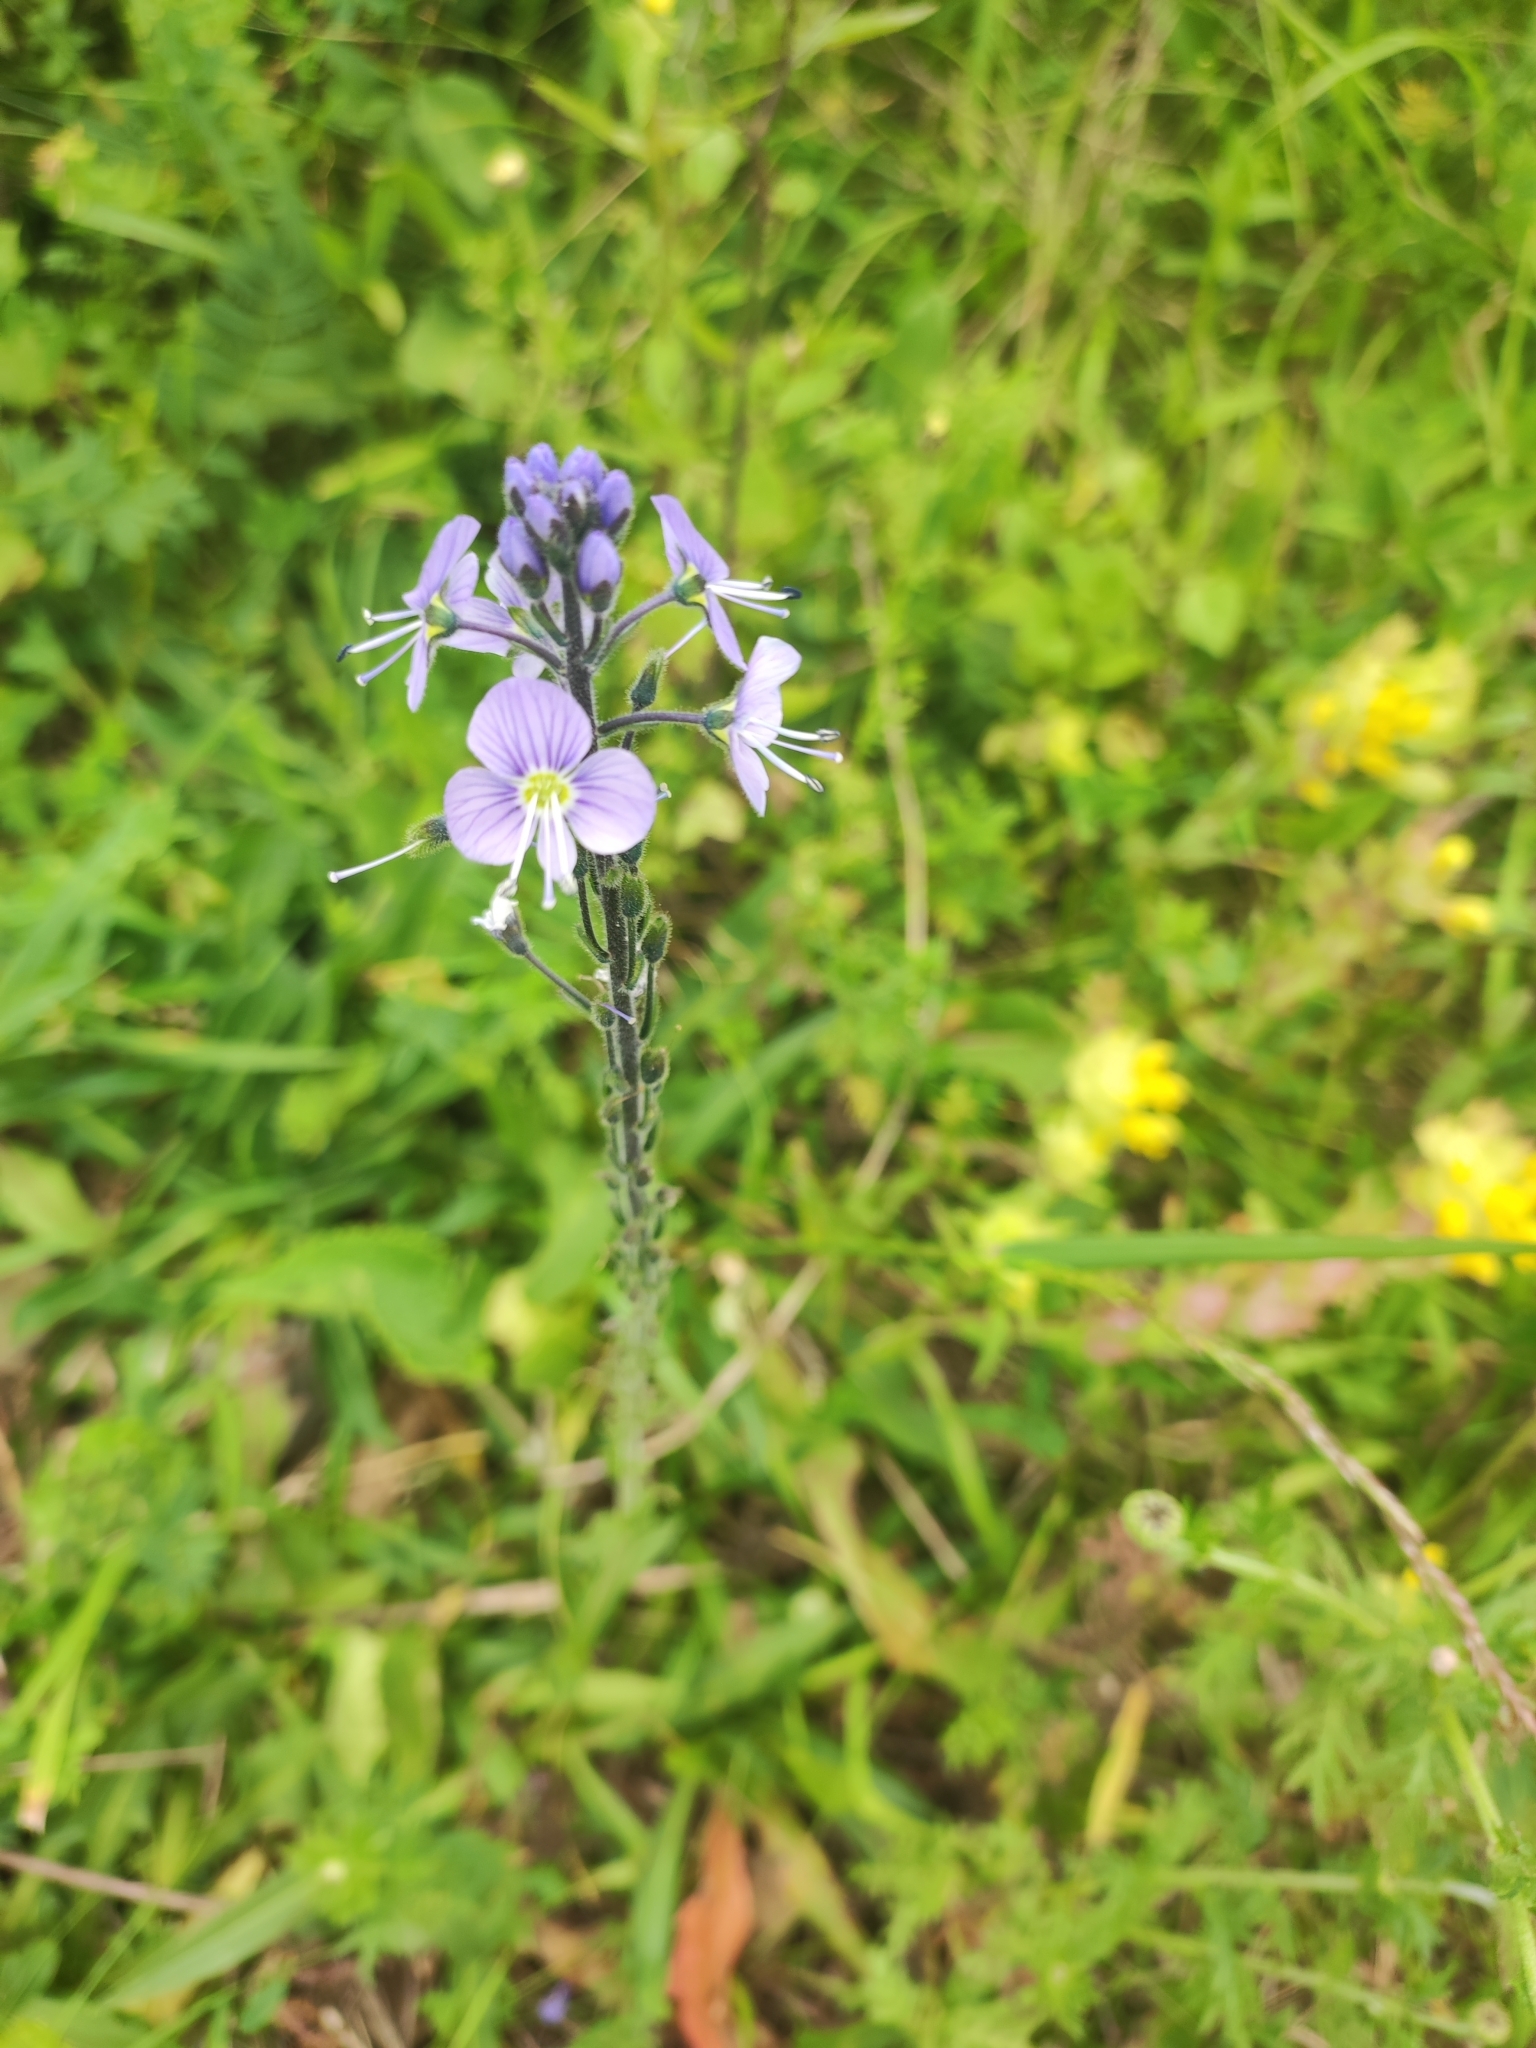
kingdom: Plantae
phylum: Tracheophyta
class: Magnoliopsida
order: Lamiales
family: Plantaginaceae
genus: Veronica
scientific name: Veronica gentianoides
